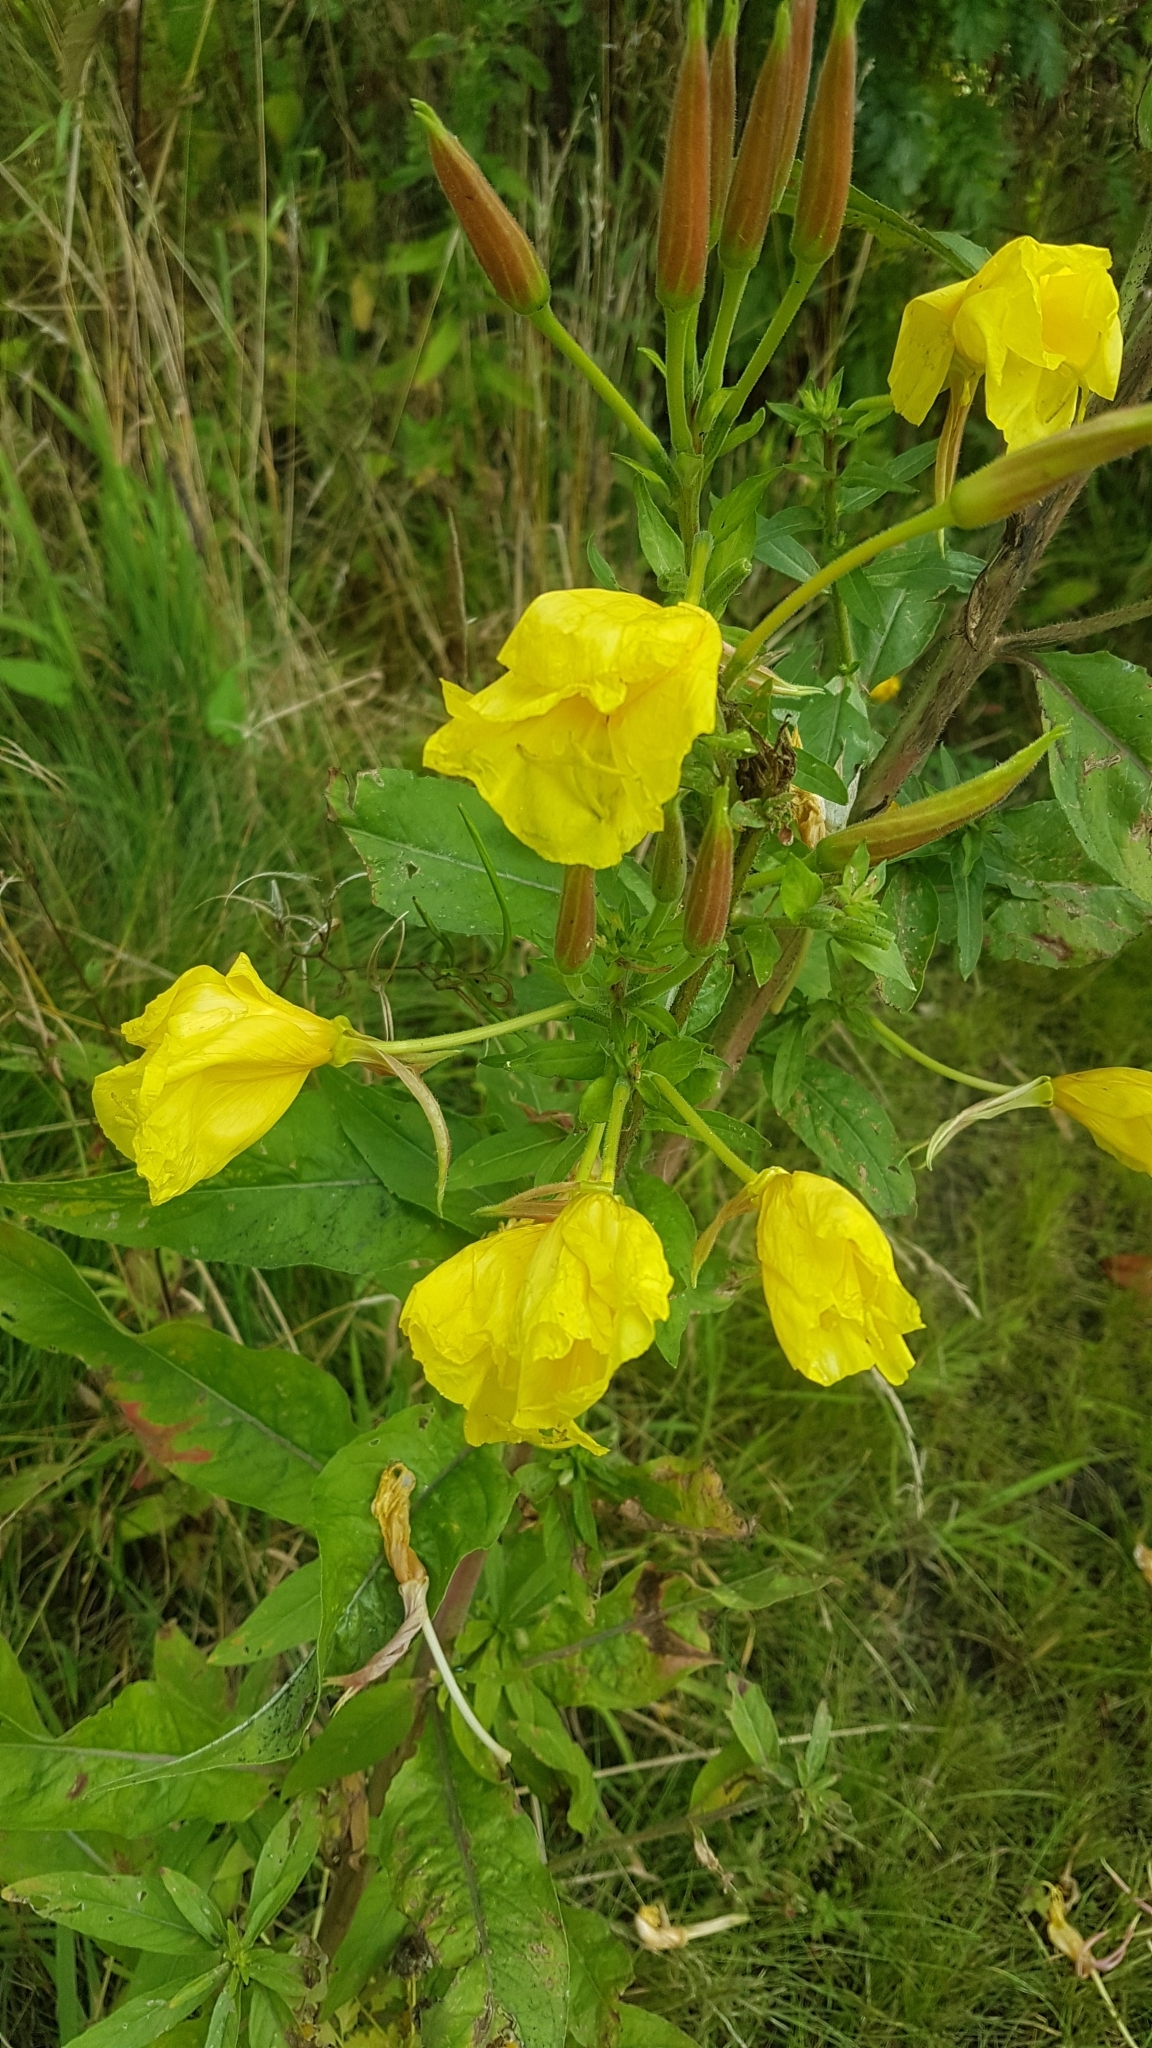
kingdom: Plantae
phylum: Tracheophyta
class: Magnoliopsida
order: Myrtales
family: Onagraceae
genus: Oenothera
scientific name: Oenothera glazioviana
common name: Large-flowered evening-primrose
